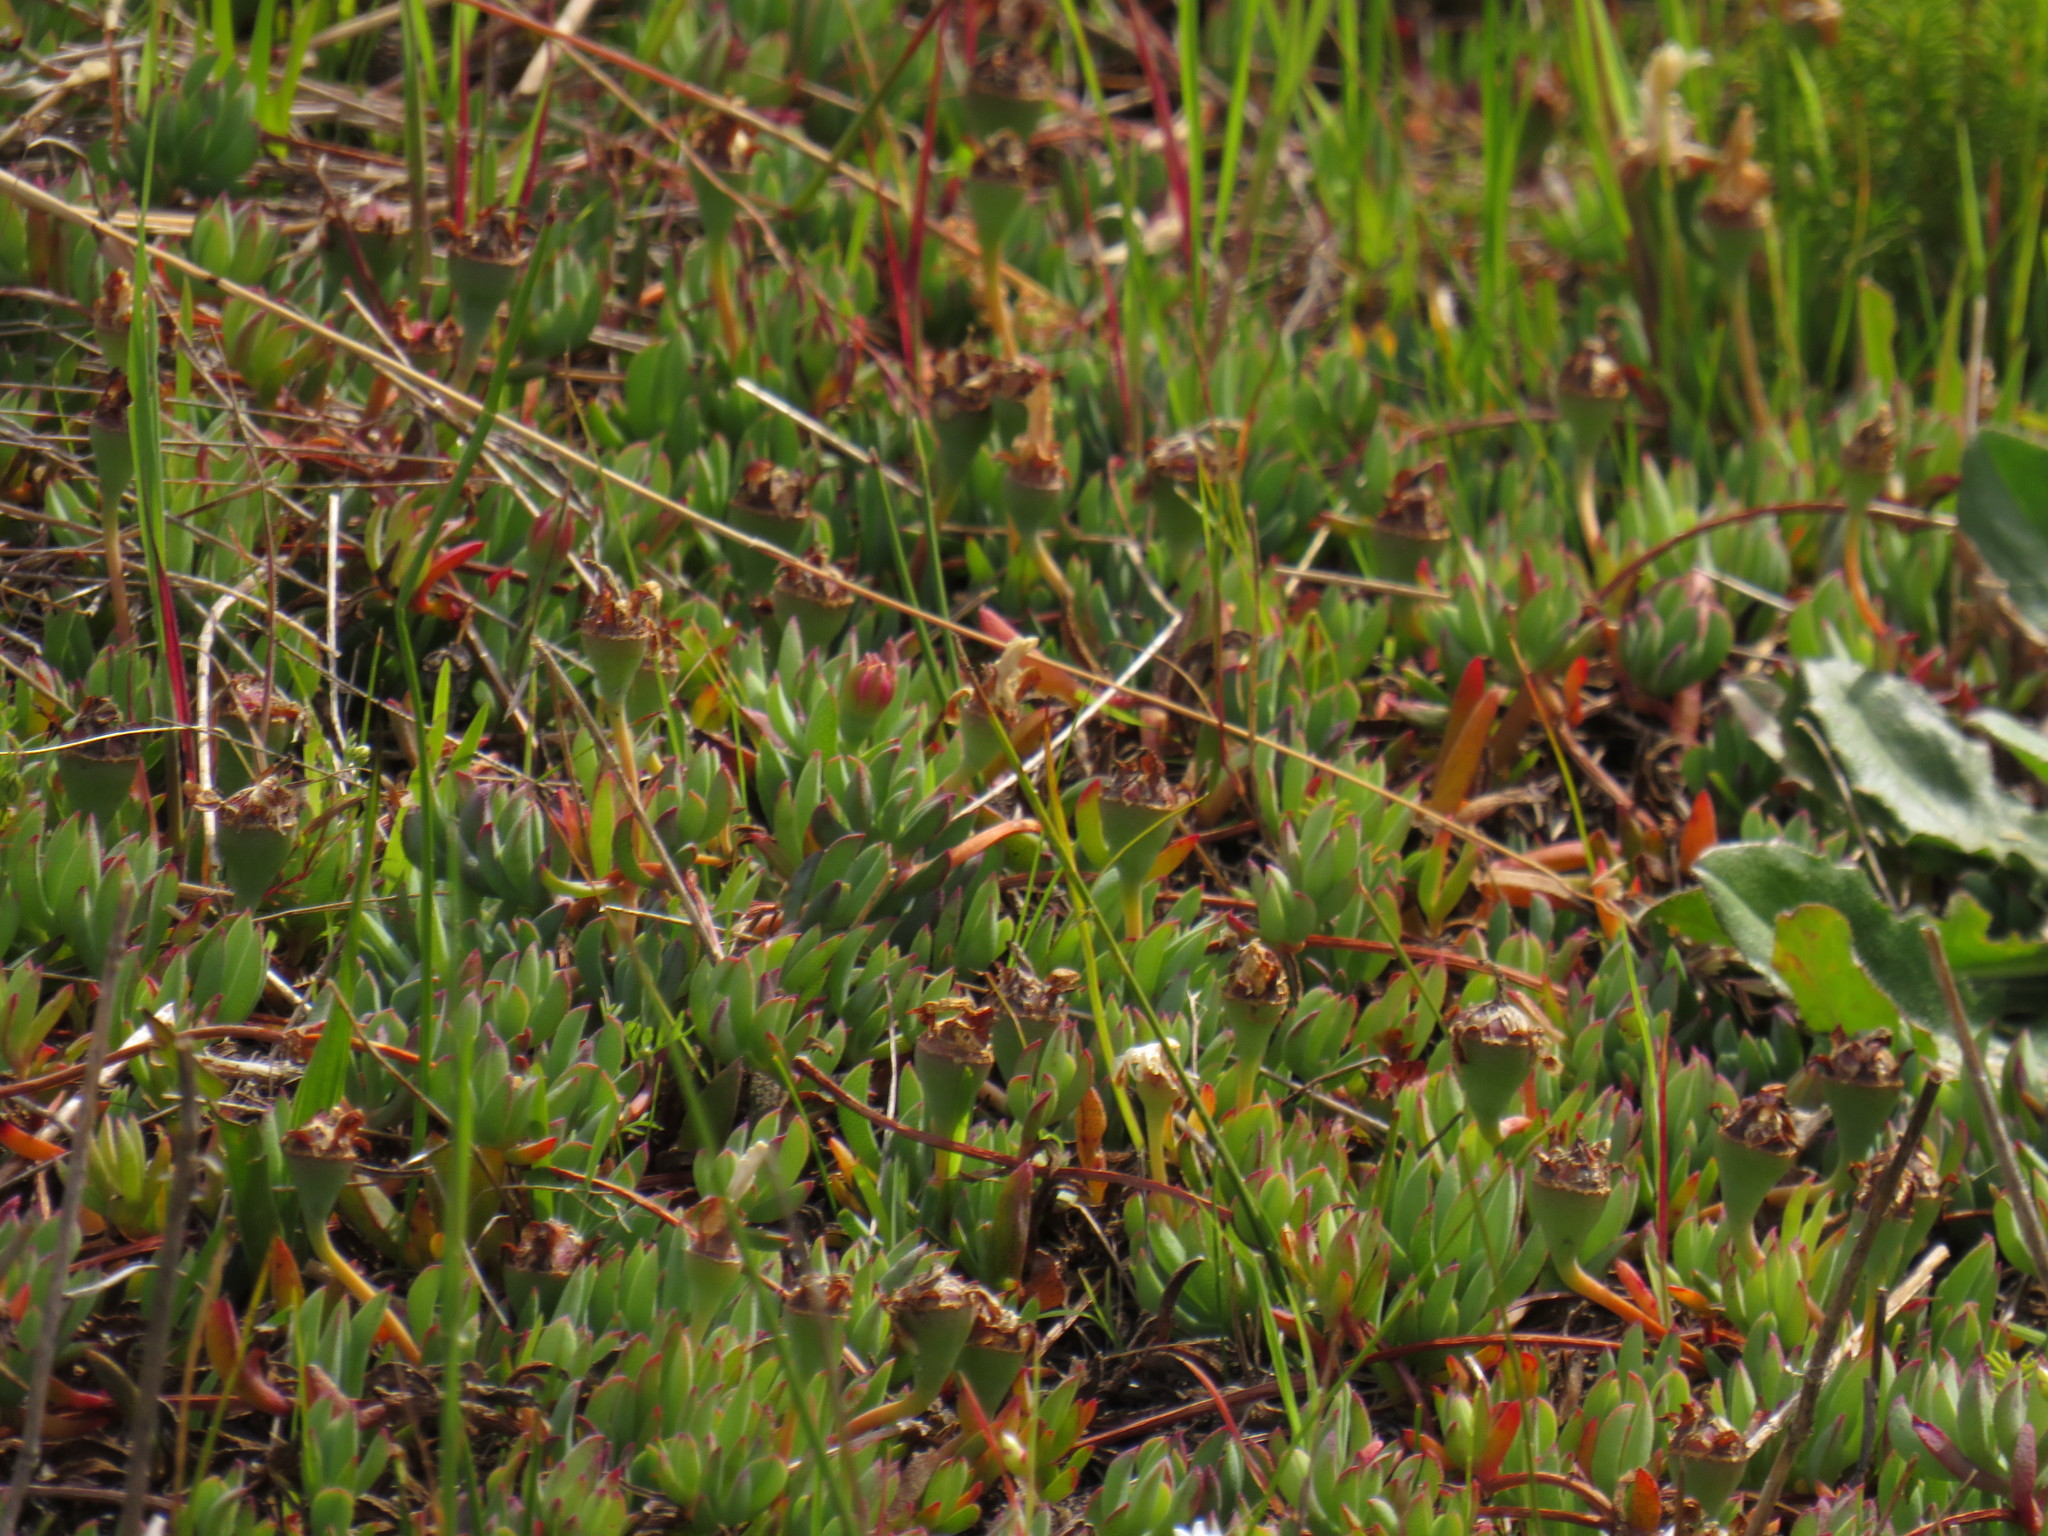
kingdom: Plantae
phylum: Tracheophyta
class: Magnoliopsida
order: Caryophyllales
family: Aizoaceae
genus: Lampranthus
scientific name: Lampranthus reptans
